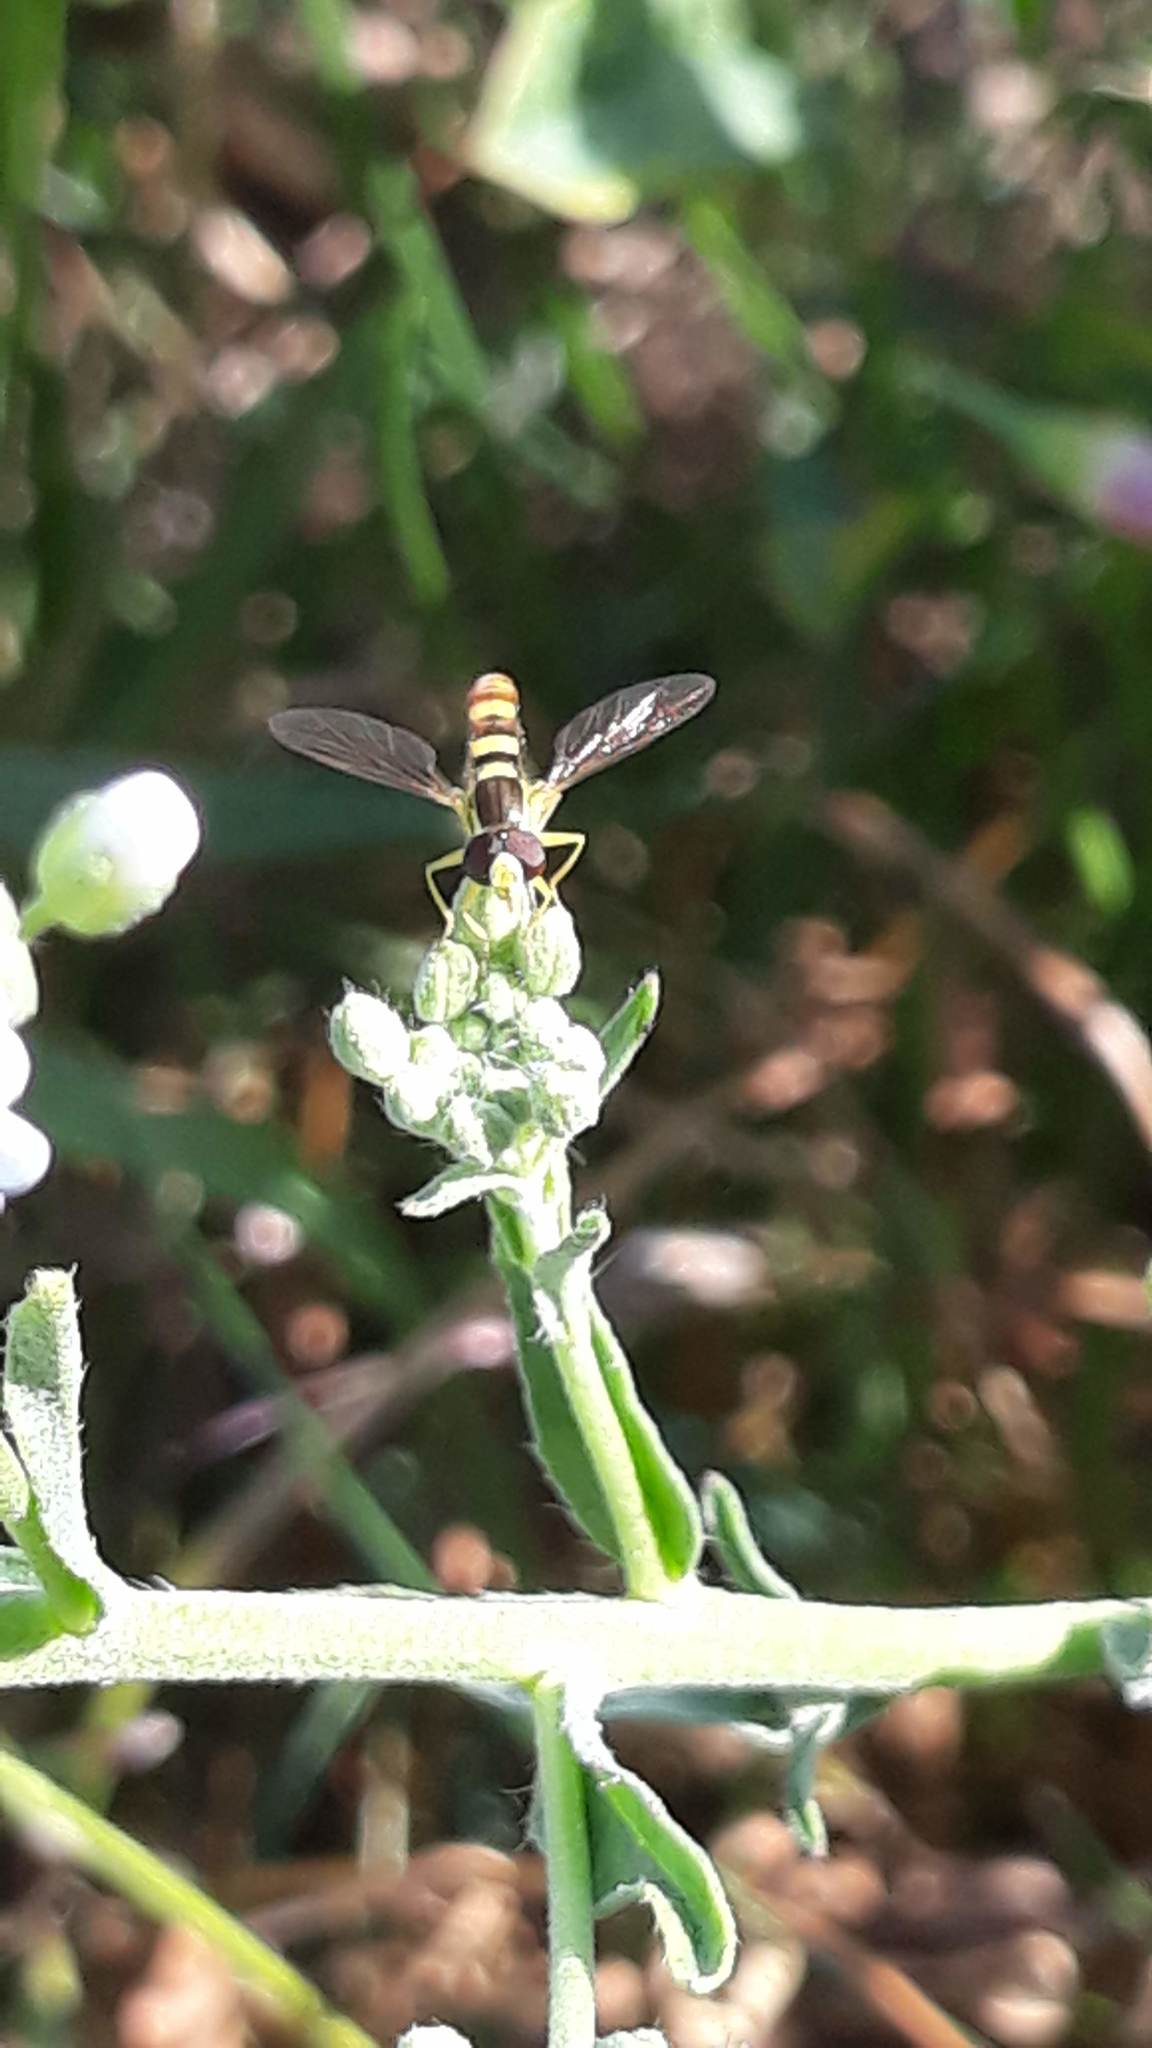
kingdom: Animalia
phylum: Arthropoda
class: Insecta
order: Diptera
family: Syrphidae
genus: Sphaerophoria
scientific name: Sphaerophoria
